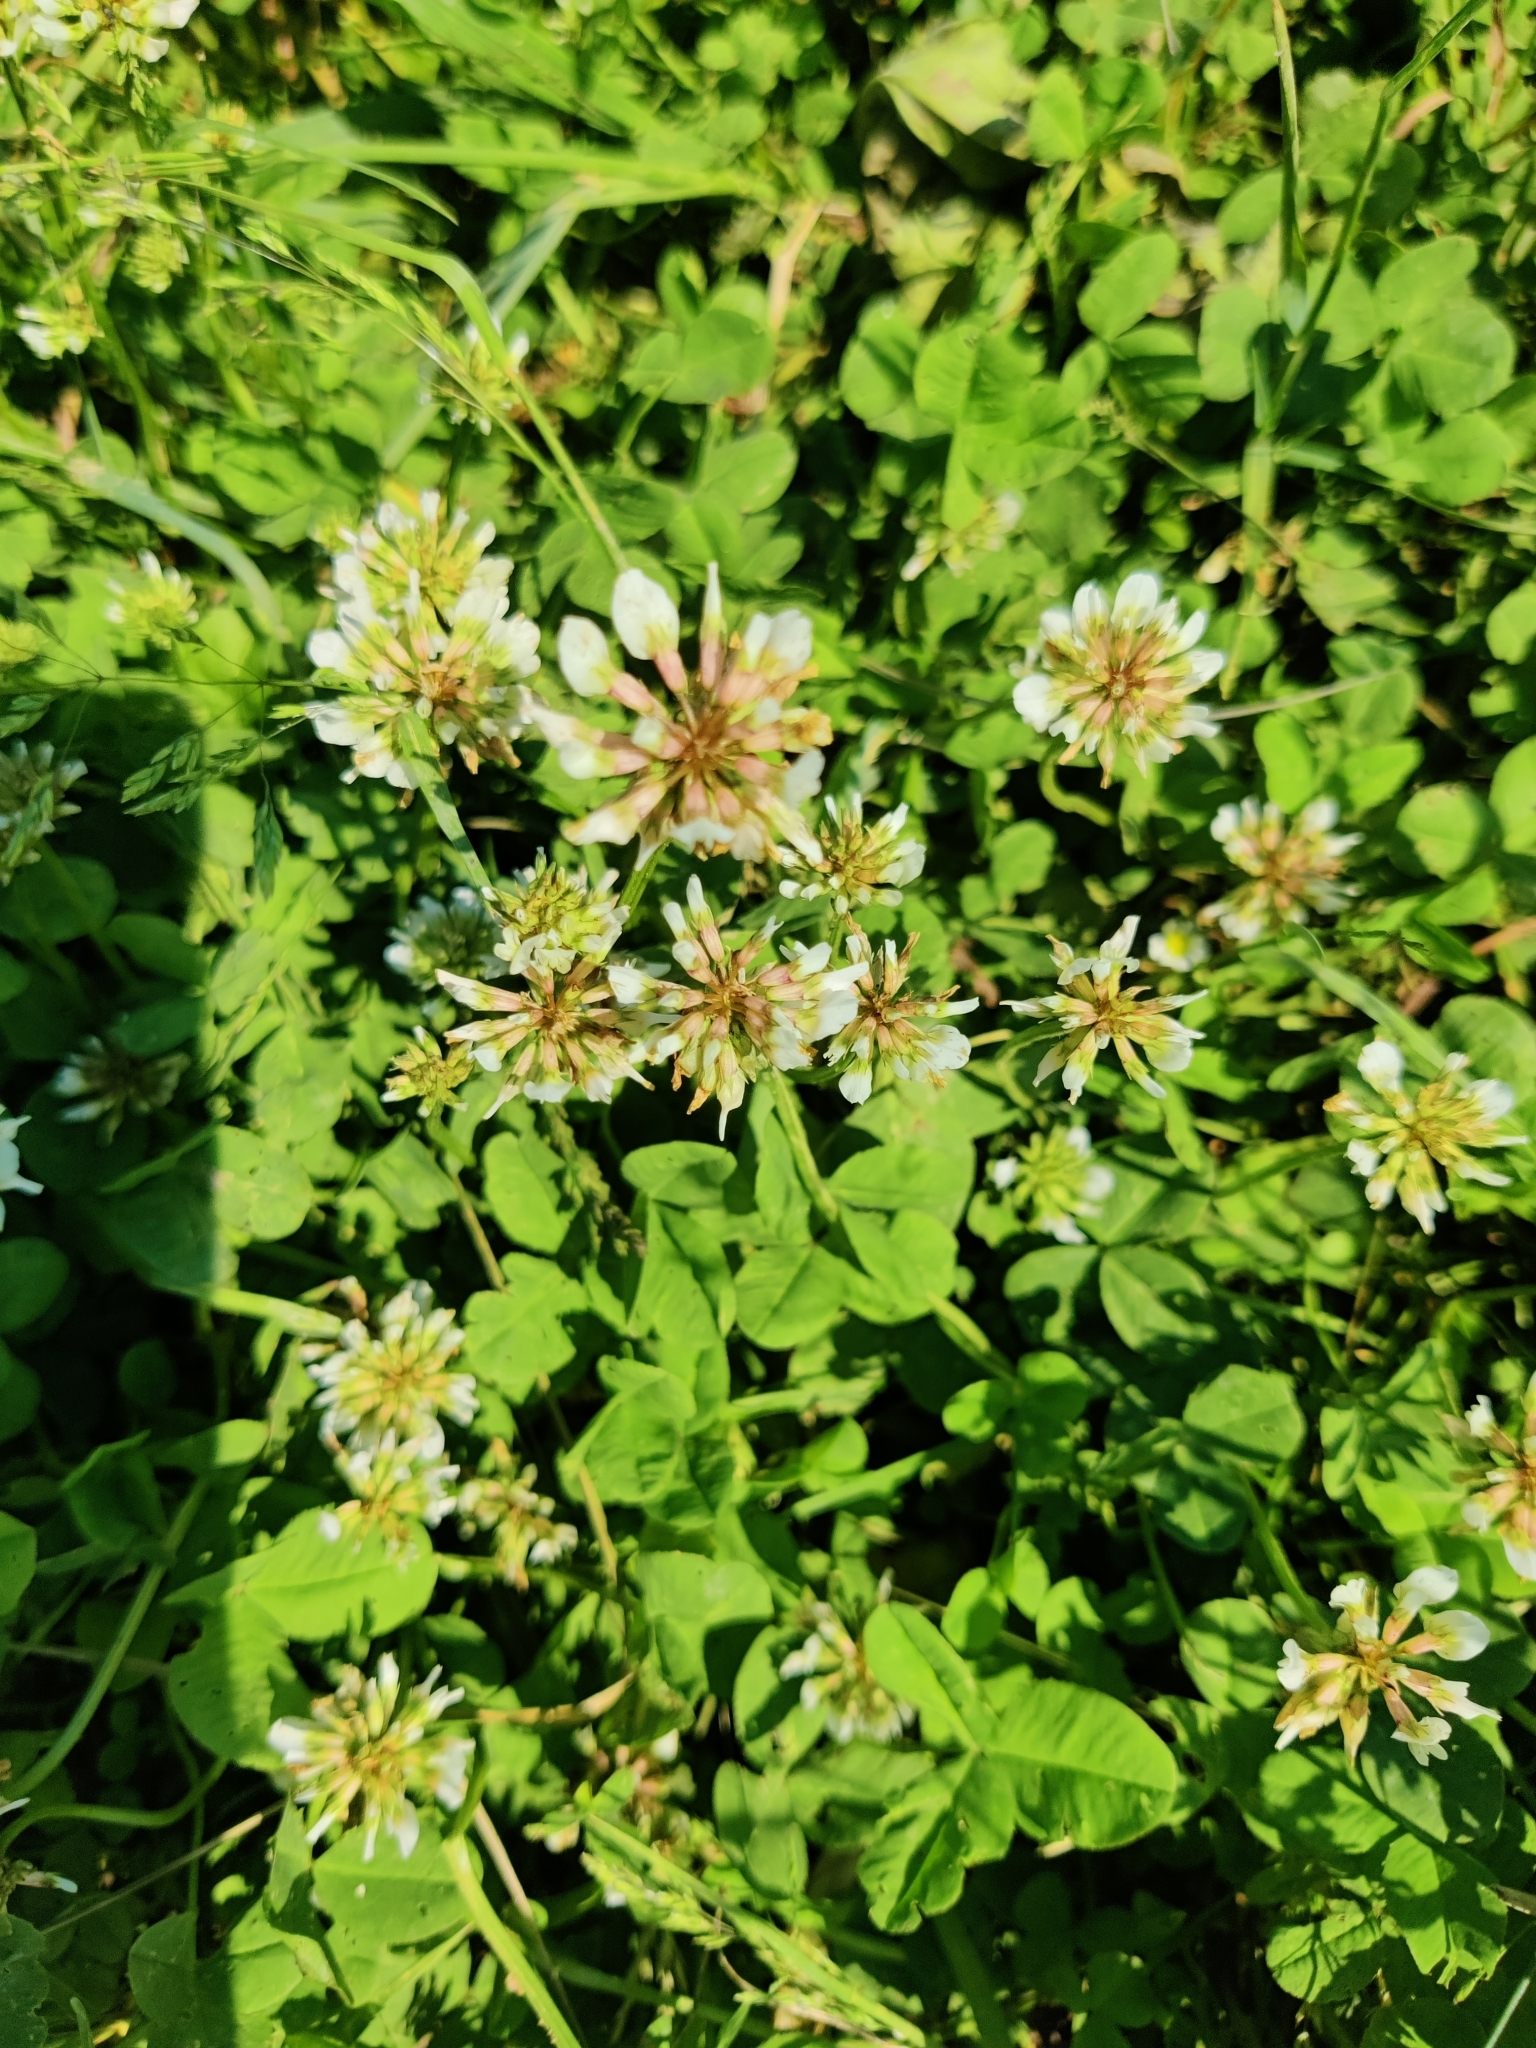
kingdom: Plantae
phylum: Tracheophyta
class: Magnoliopsida
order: Fabales
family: Fabaceae
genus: Trifolium
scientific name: Trifolium repens
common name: White clover
